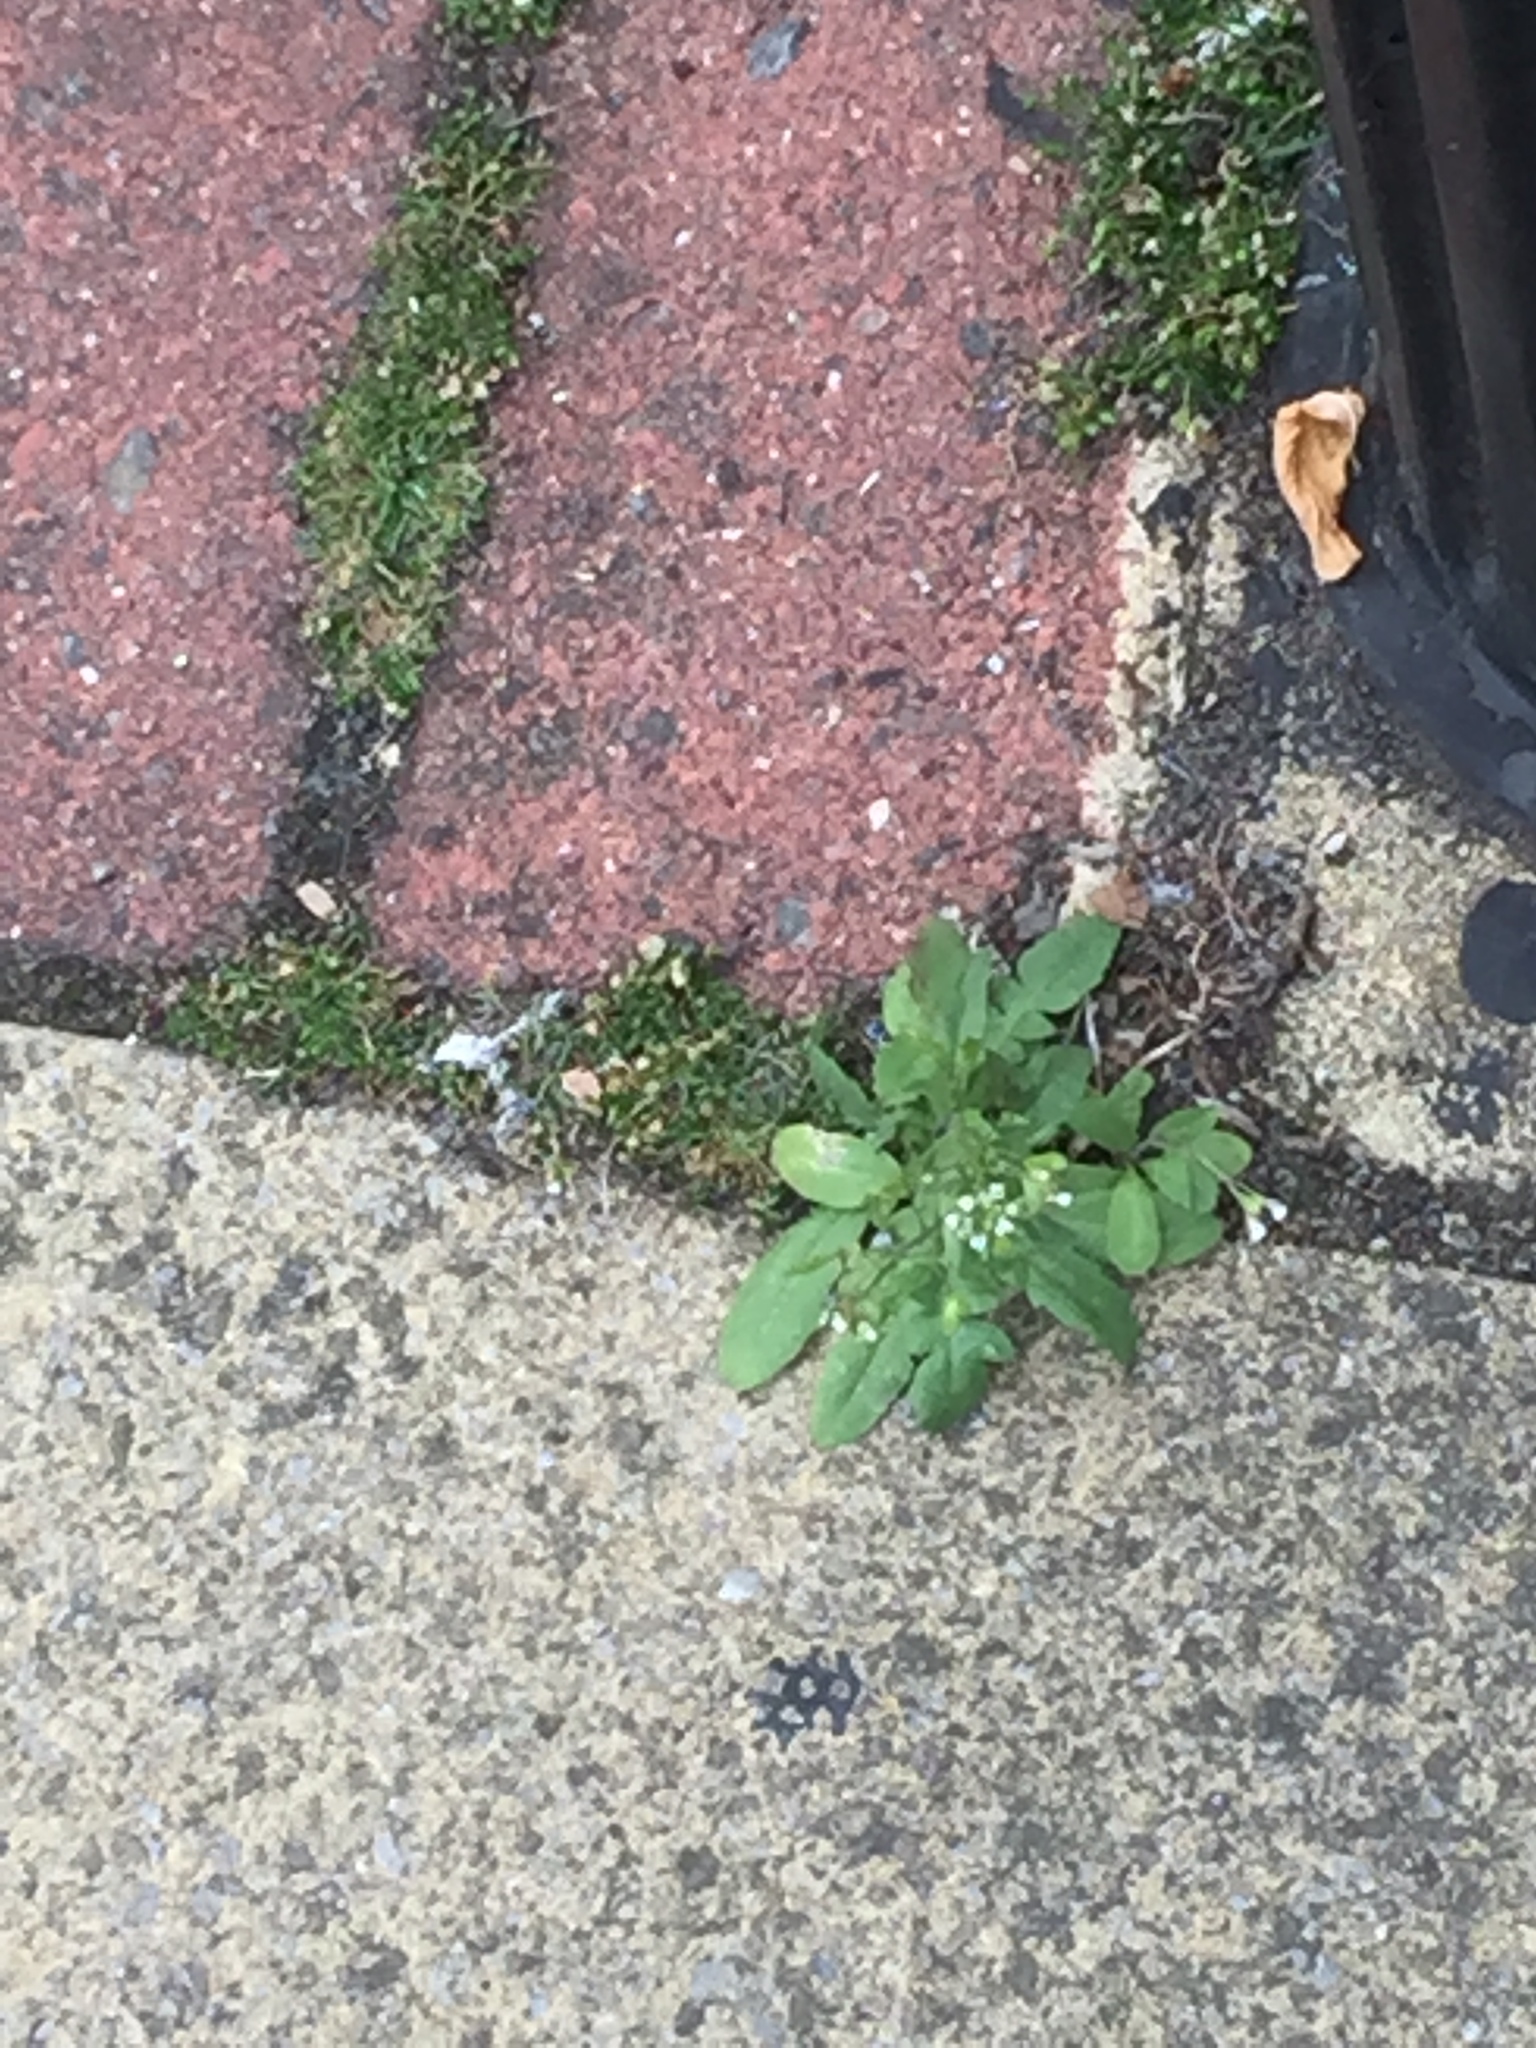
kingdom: Plantae
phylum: Tracheophyta
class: Magnoliopsida
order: Brassicales
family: Brassicaceae
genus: Capsella
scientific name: Capsella bursa-pastoris
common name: Shepherd's purse
